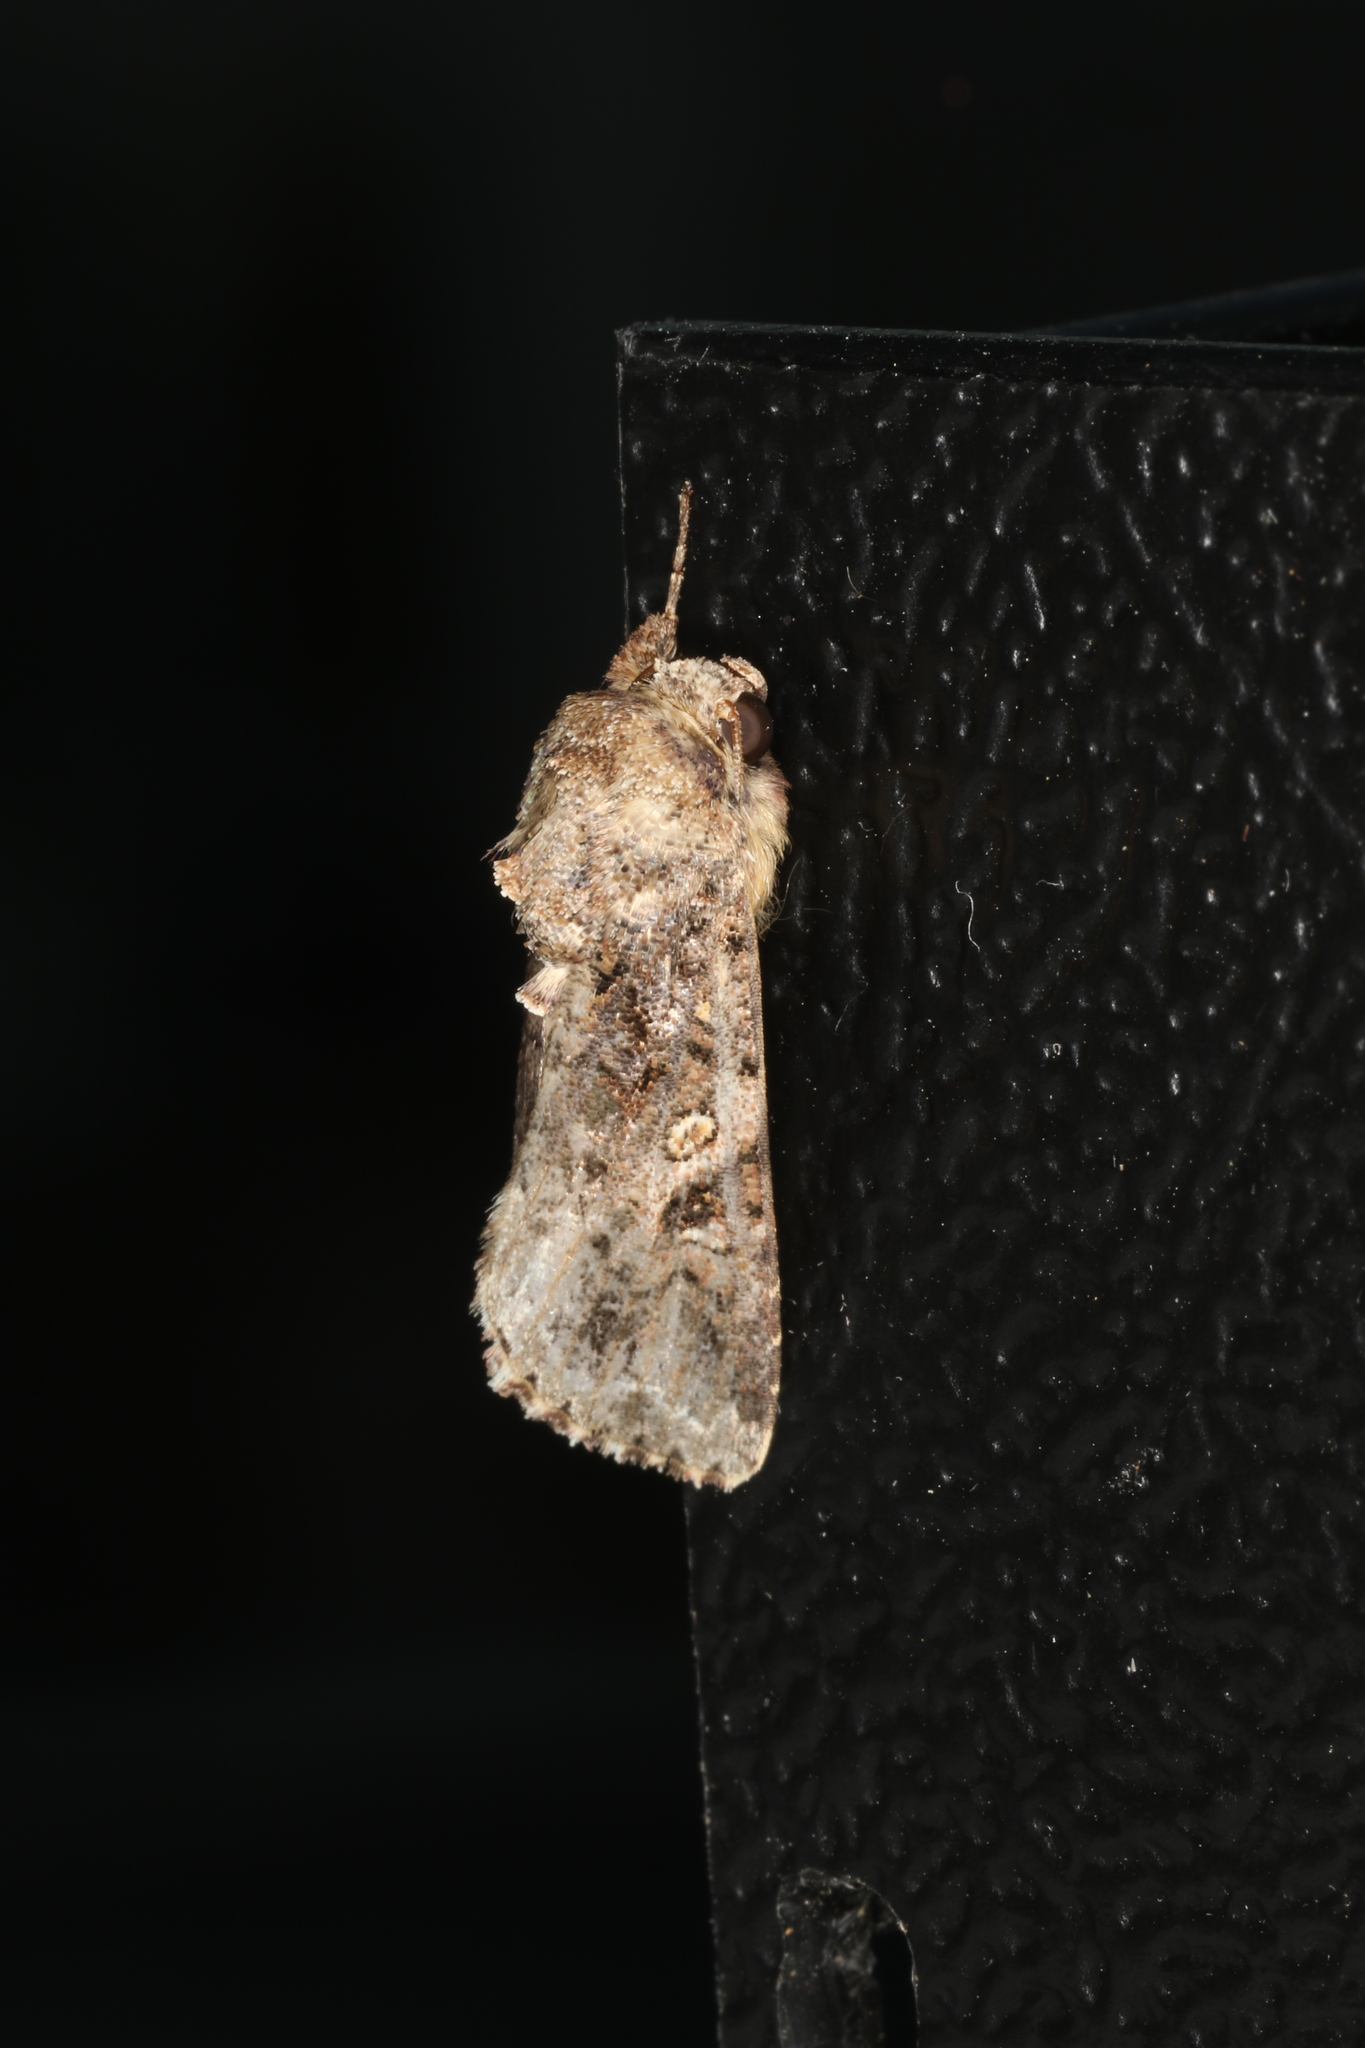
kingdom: Animalia
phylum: Arthropoda
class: Insecta
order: Lepidoptera
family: Noctuidae
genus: Spodoptera
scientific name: Spodoptera mauritia
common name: Lawn armyworm
